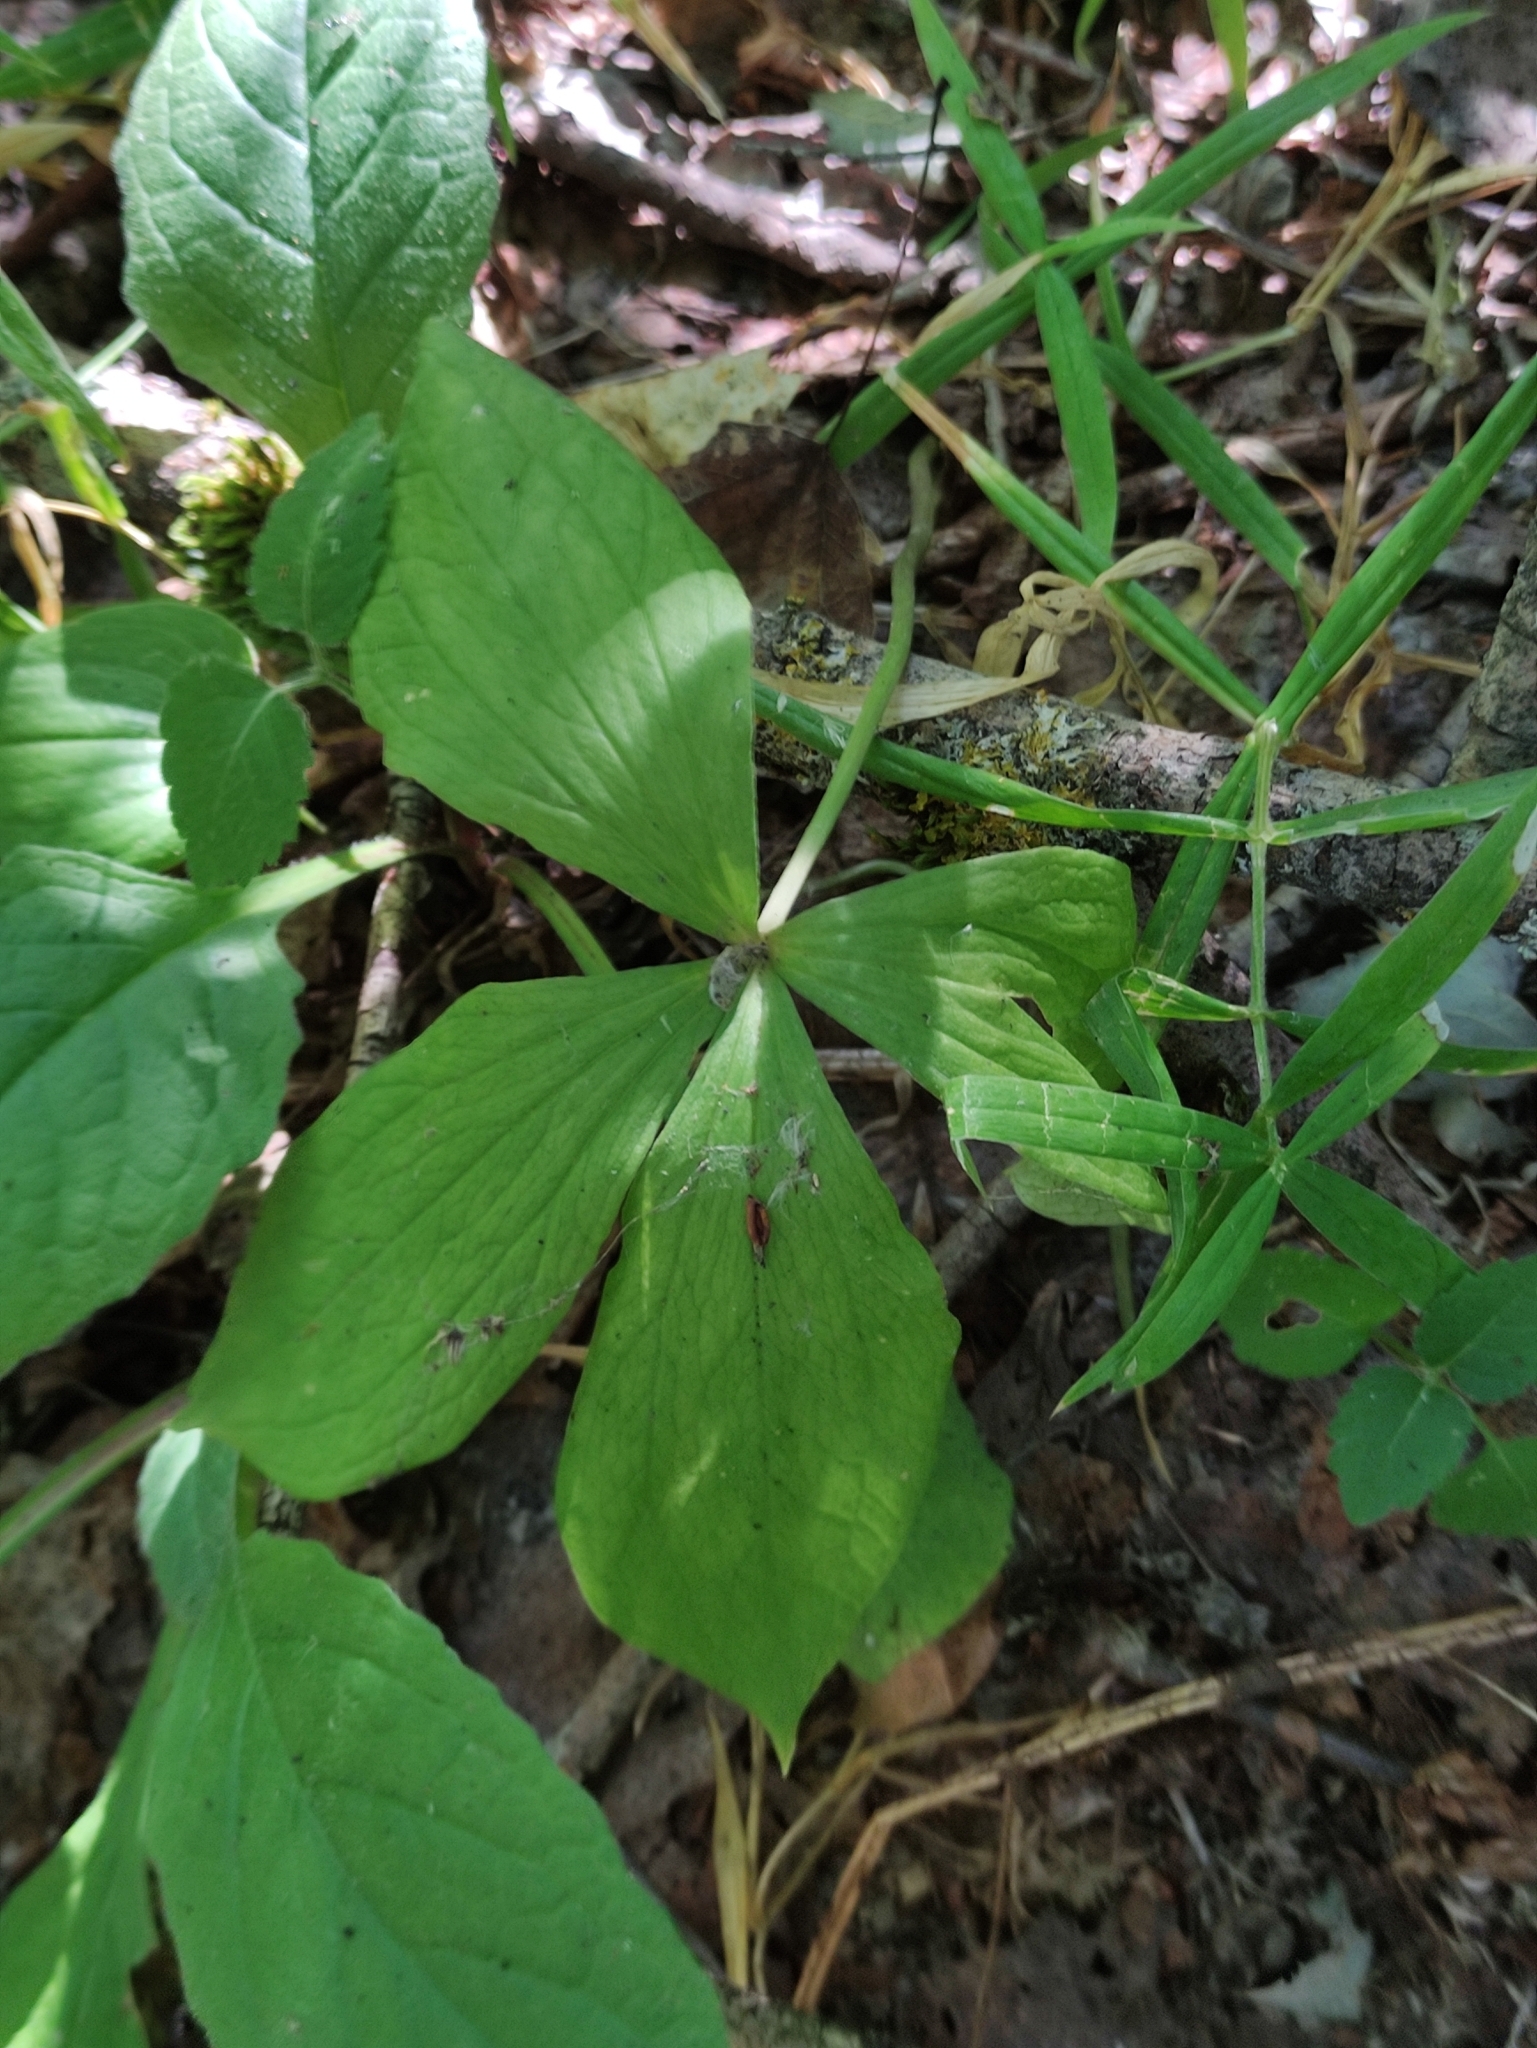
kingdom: Plantae
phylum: Tracheophyta
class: Liliopsida
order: Liliales
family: Melanthiaceae
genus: Paris
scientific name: Paris quadrifolia
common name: Herb-paris
